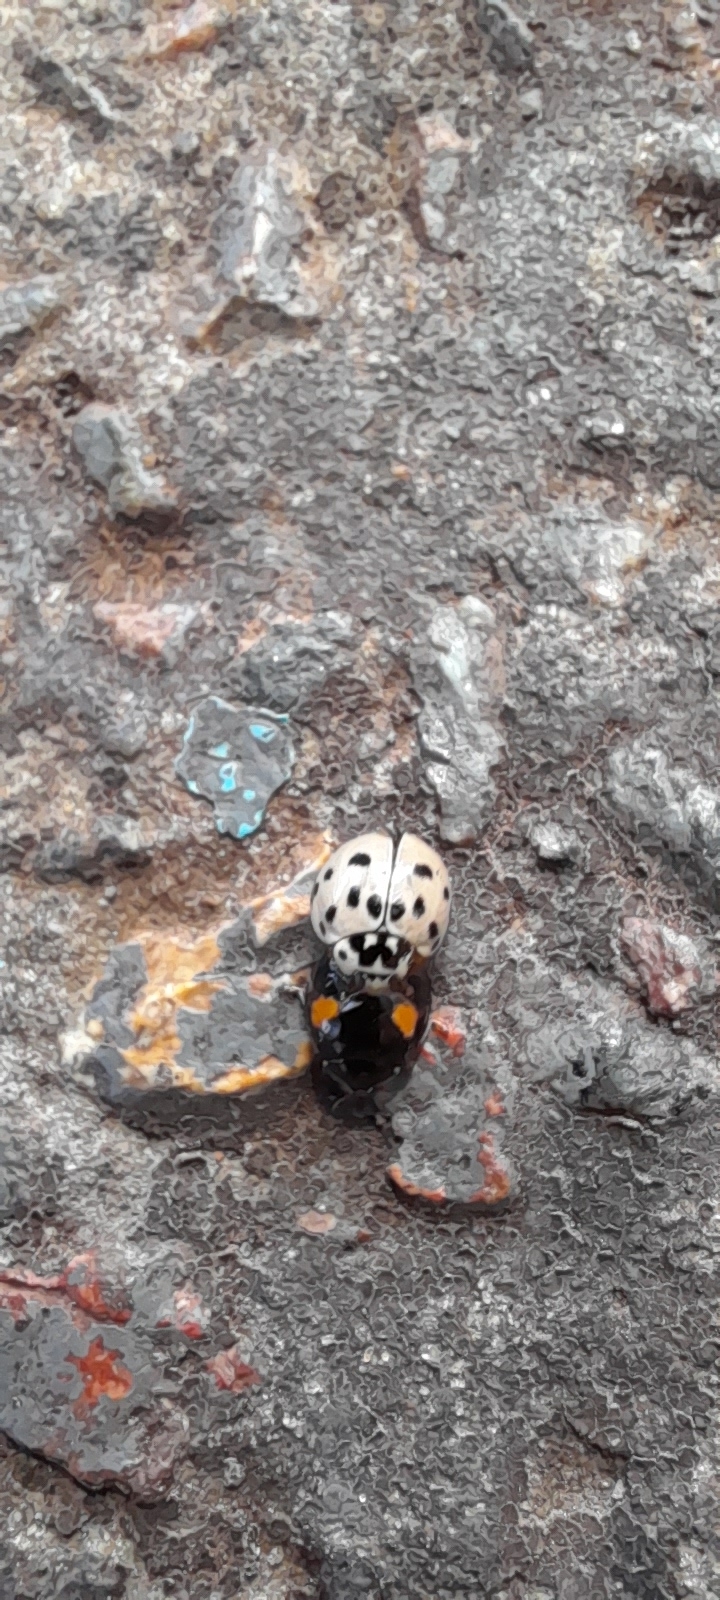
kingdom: Animalia
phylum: Arthropoda
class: Insecta
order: Coleoptera
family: Coccinellidae
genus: Olla
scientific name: Olla v-nigrum
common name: Ashy gray lady beetle
